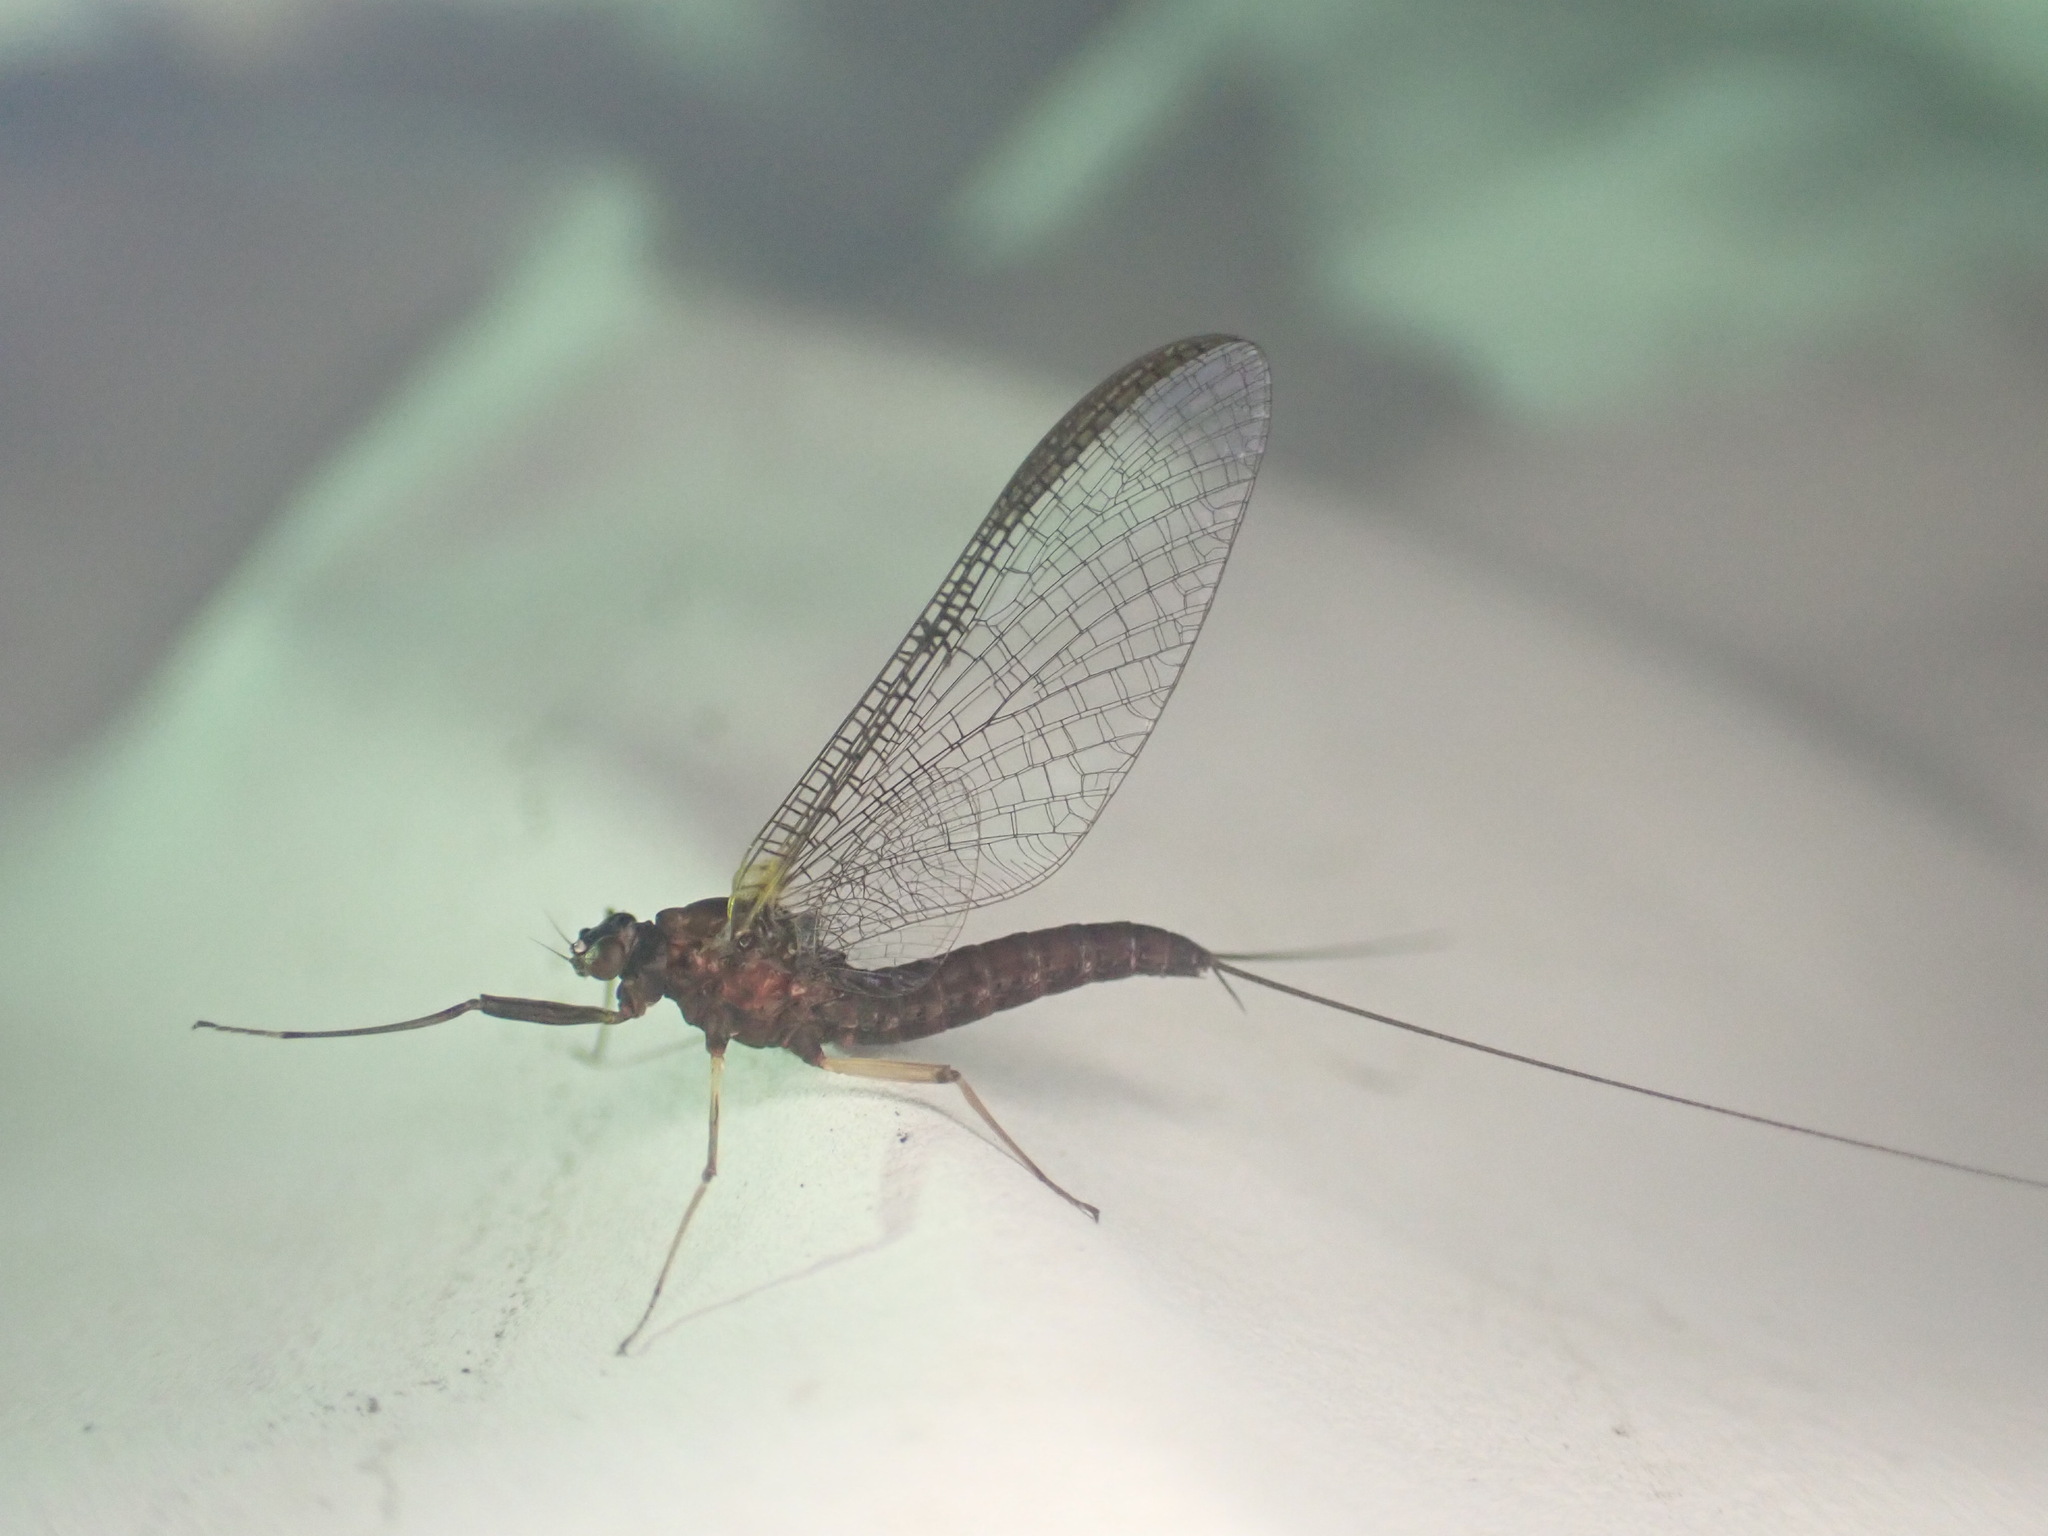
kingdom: Animalia
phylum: Arthropoda
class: Insecta
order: Ephemeroptera
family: Coloburiscidae
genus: Coloburiscus
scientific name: Coloburiscus humeralis
